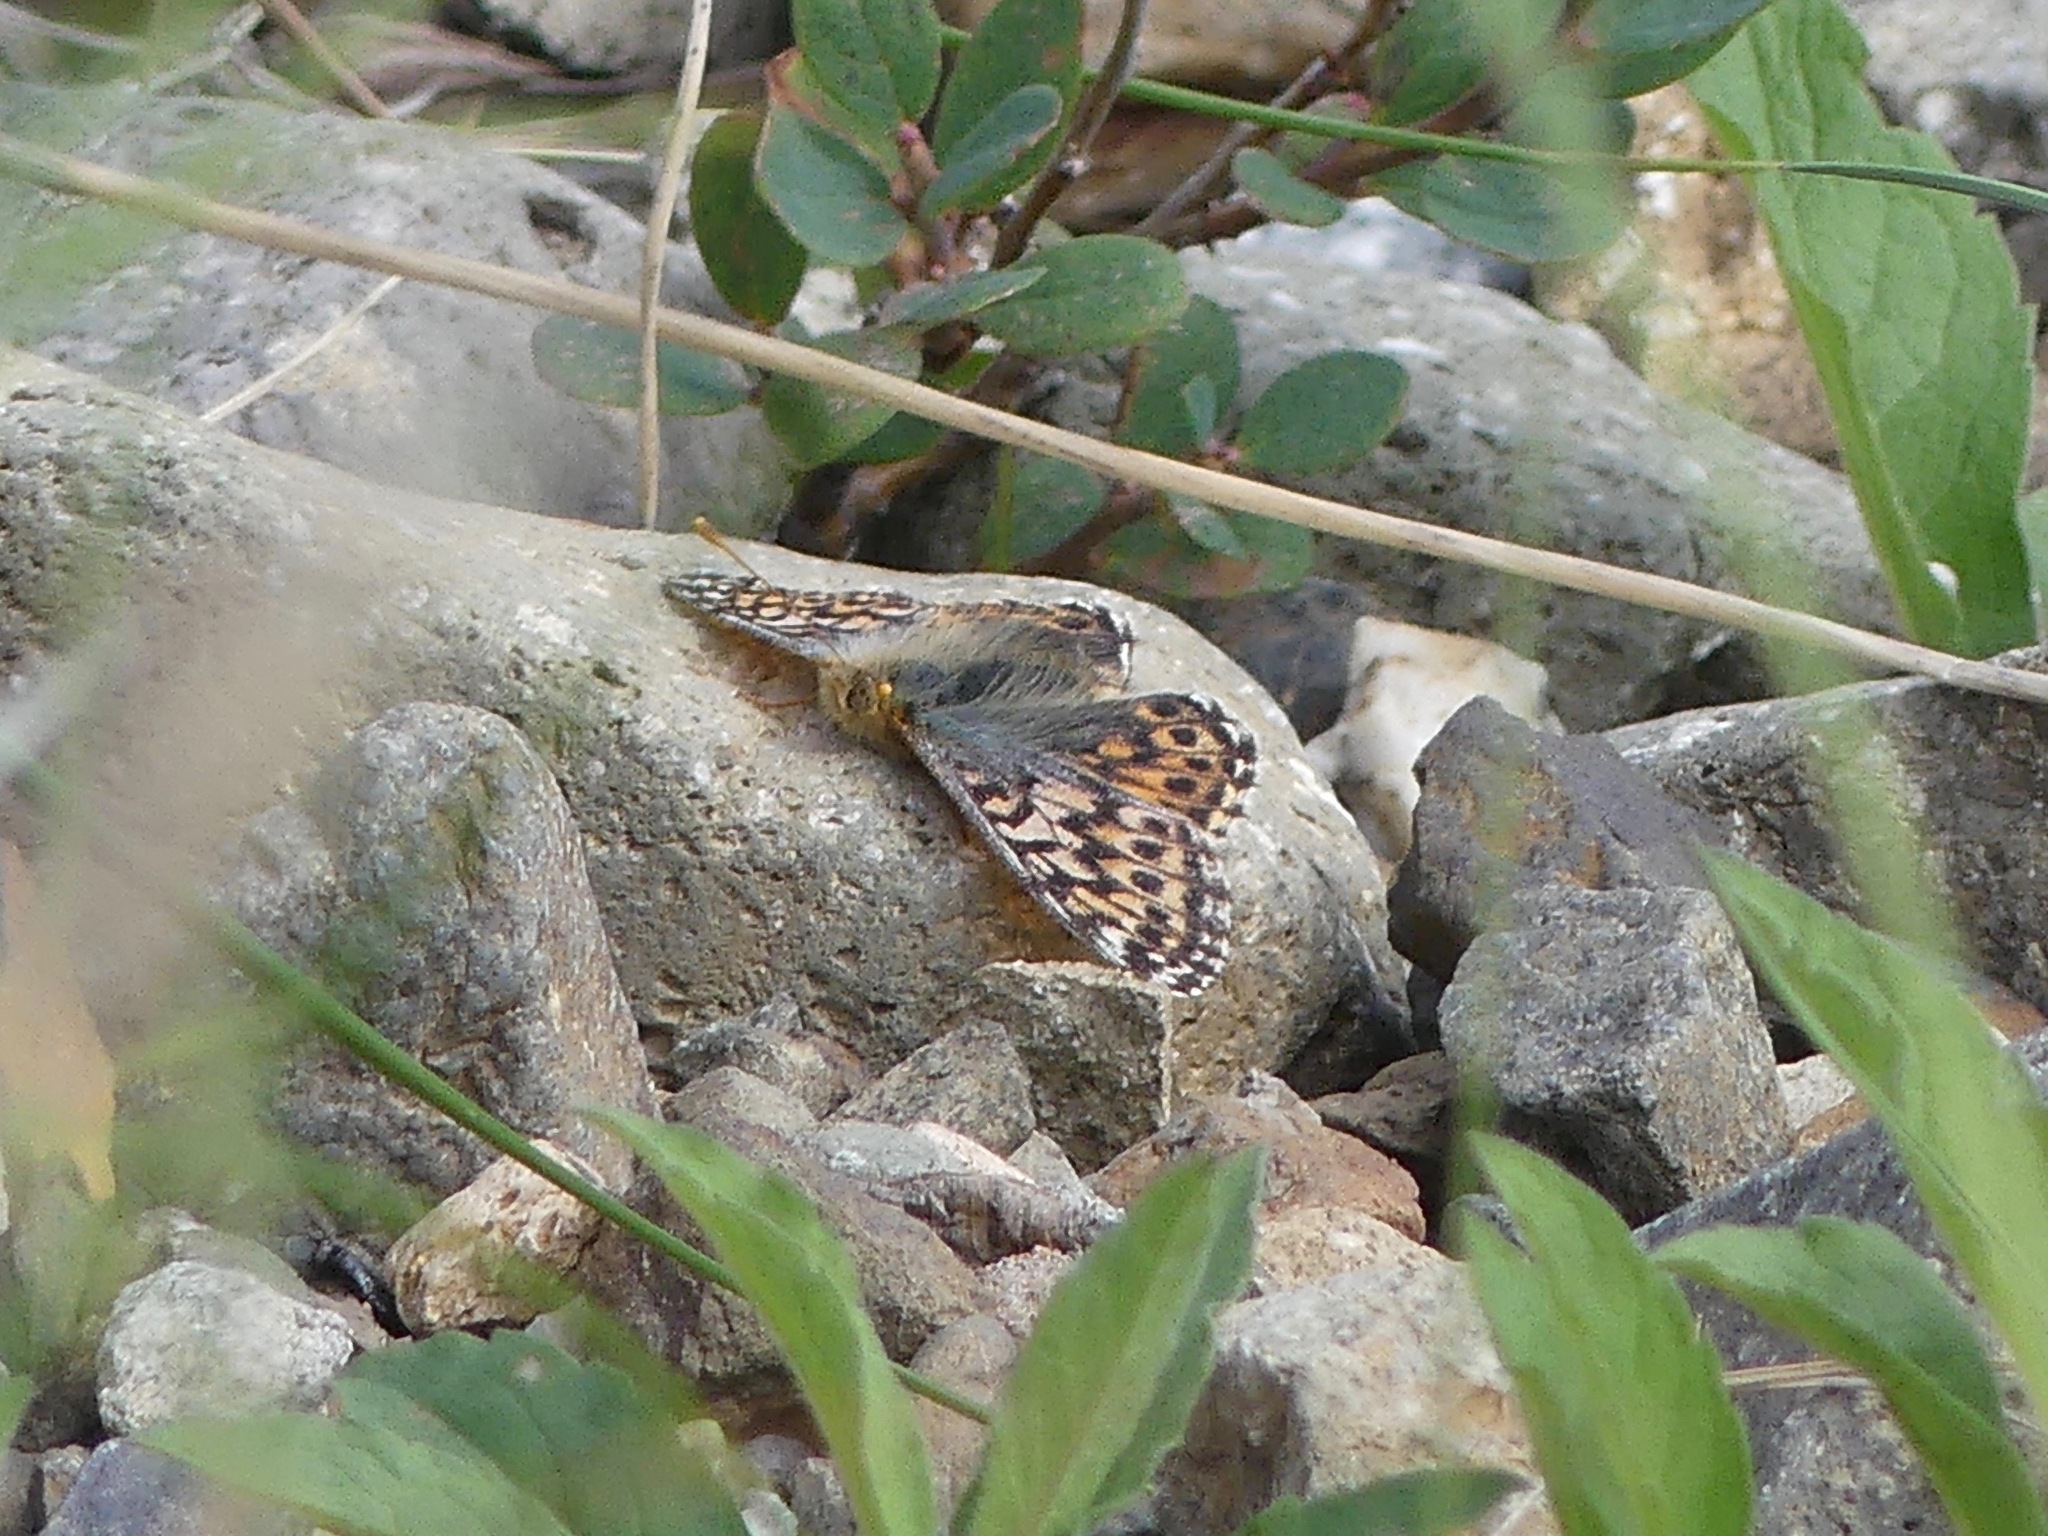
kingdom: Animalia
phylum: Arthropoda
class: Insecta
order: Lepidoptera
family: Nymphalidae
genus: Boloria
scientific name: Boloria alaskensis
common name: Alaskan fritillary
